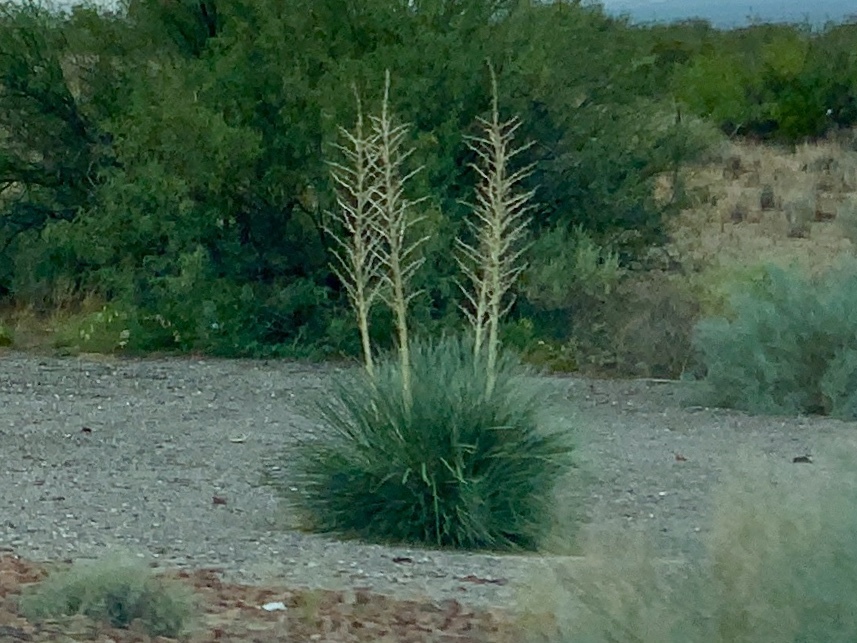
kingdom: Plantae
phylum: Tracheophyta
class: Liliopsida
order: Asparagales
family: Asparagaceae
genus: Yucca
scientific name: Yucca elata
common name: Palmella
